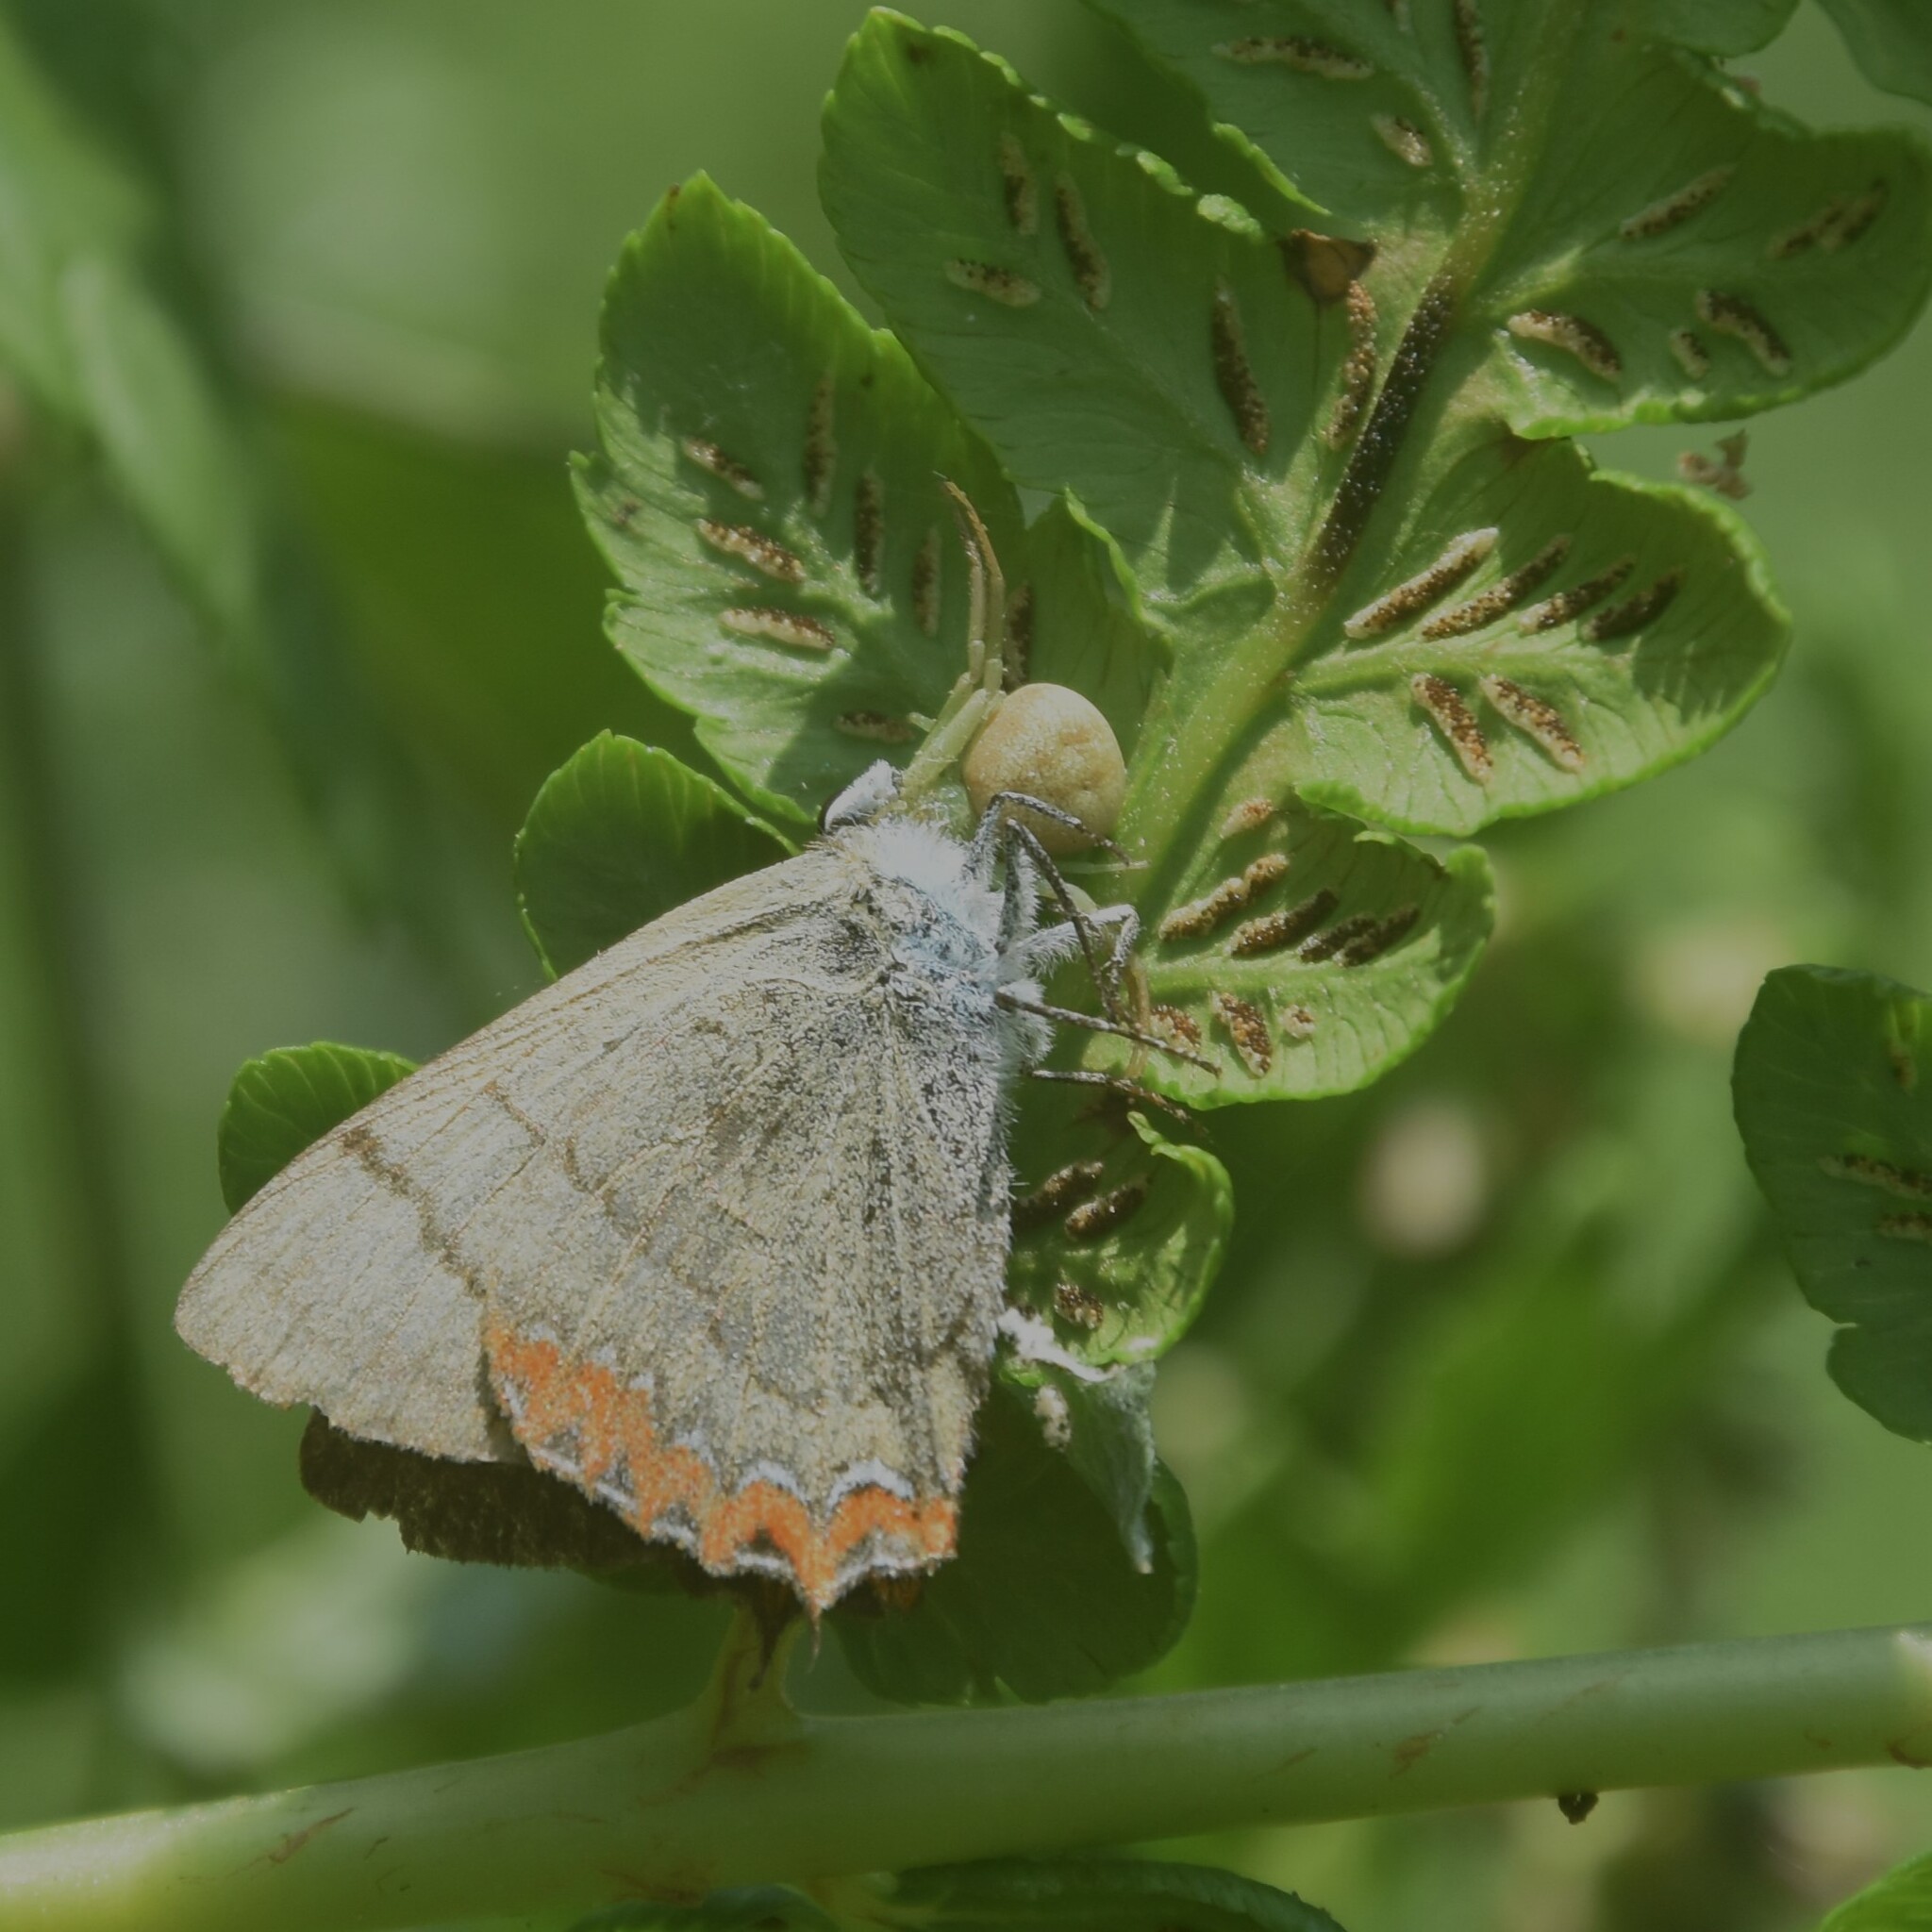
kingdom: Animalia
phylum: Arthropoda
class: Insecta
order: Lepidoptera
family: Lycaenidae
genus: Heliophorus
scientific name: Heliophorus
